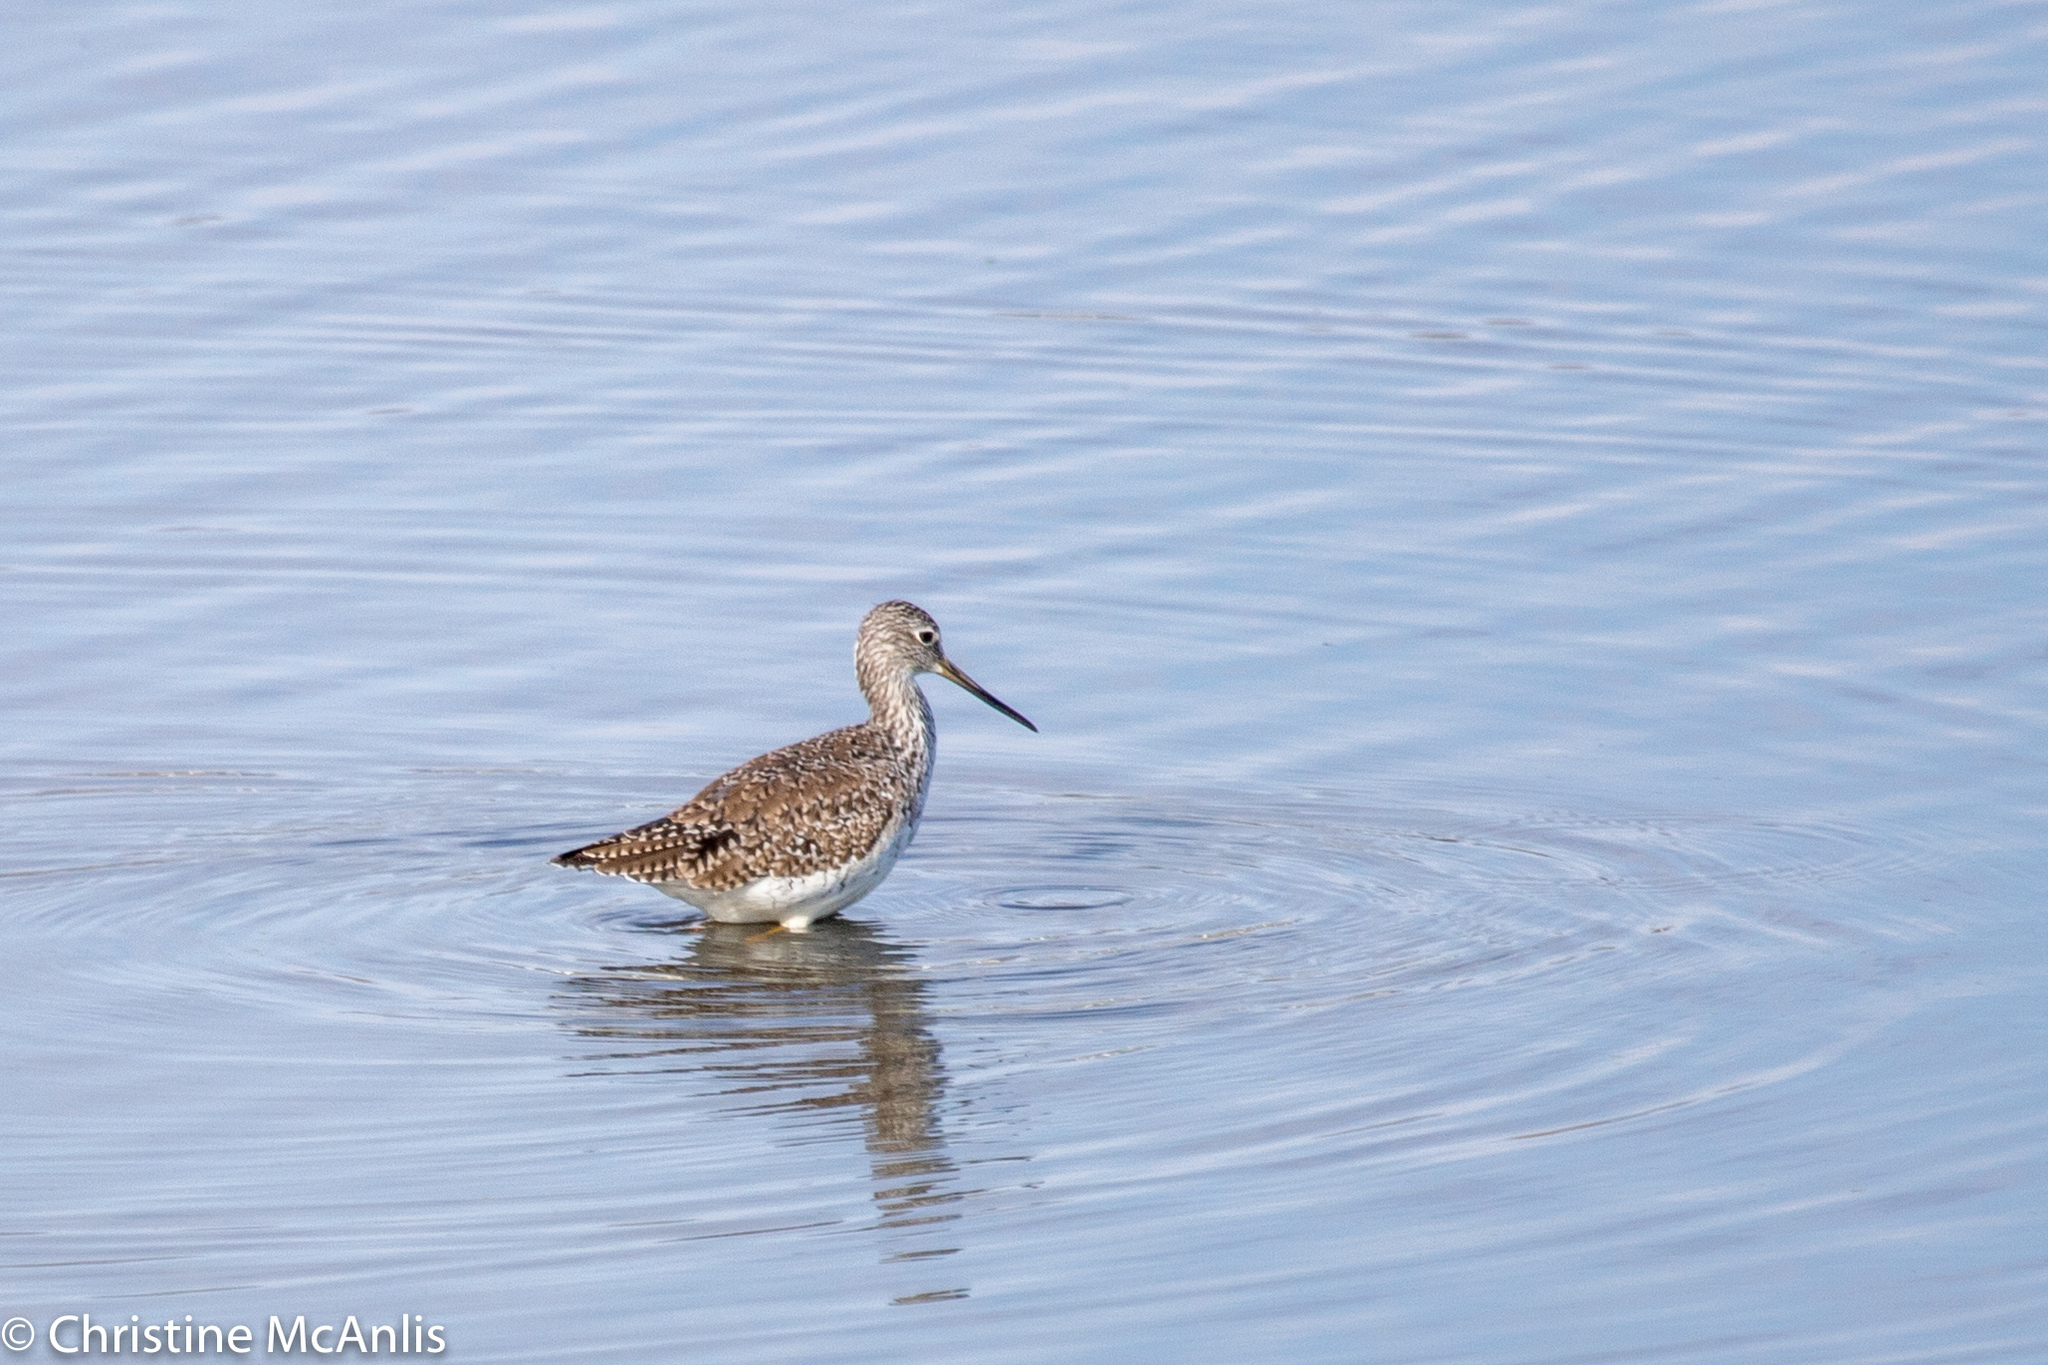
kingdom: Animalia
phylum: Chordata
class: Aves
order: Charadriiformes
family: Scolopacidae
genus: Tringa
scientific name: Tringa melanoleuca
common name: Greater yellowlegs
